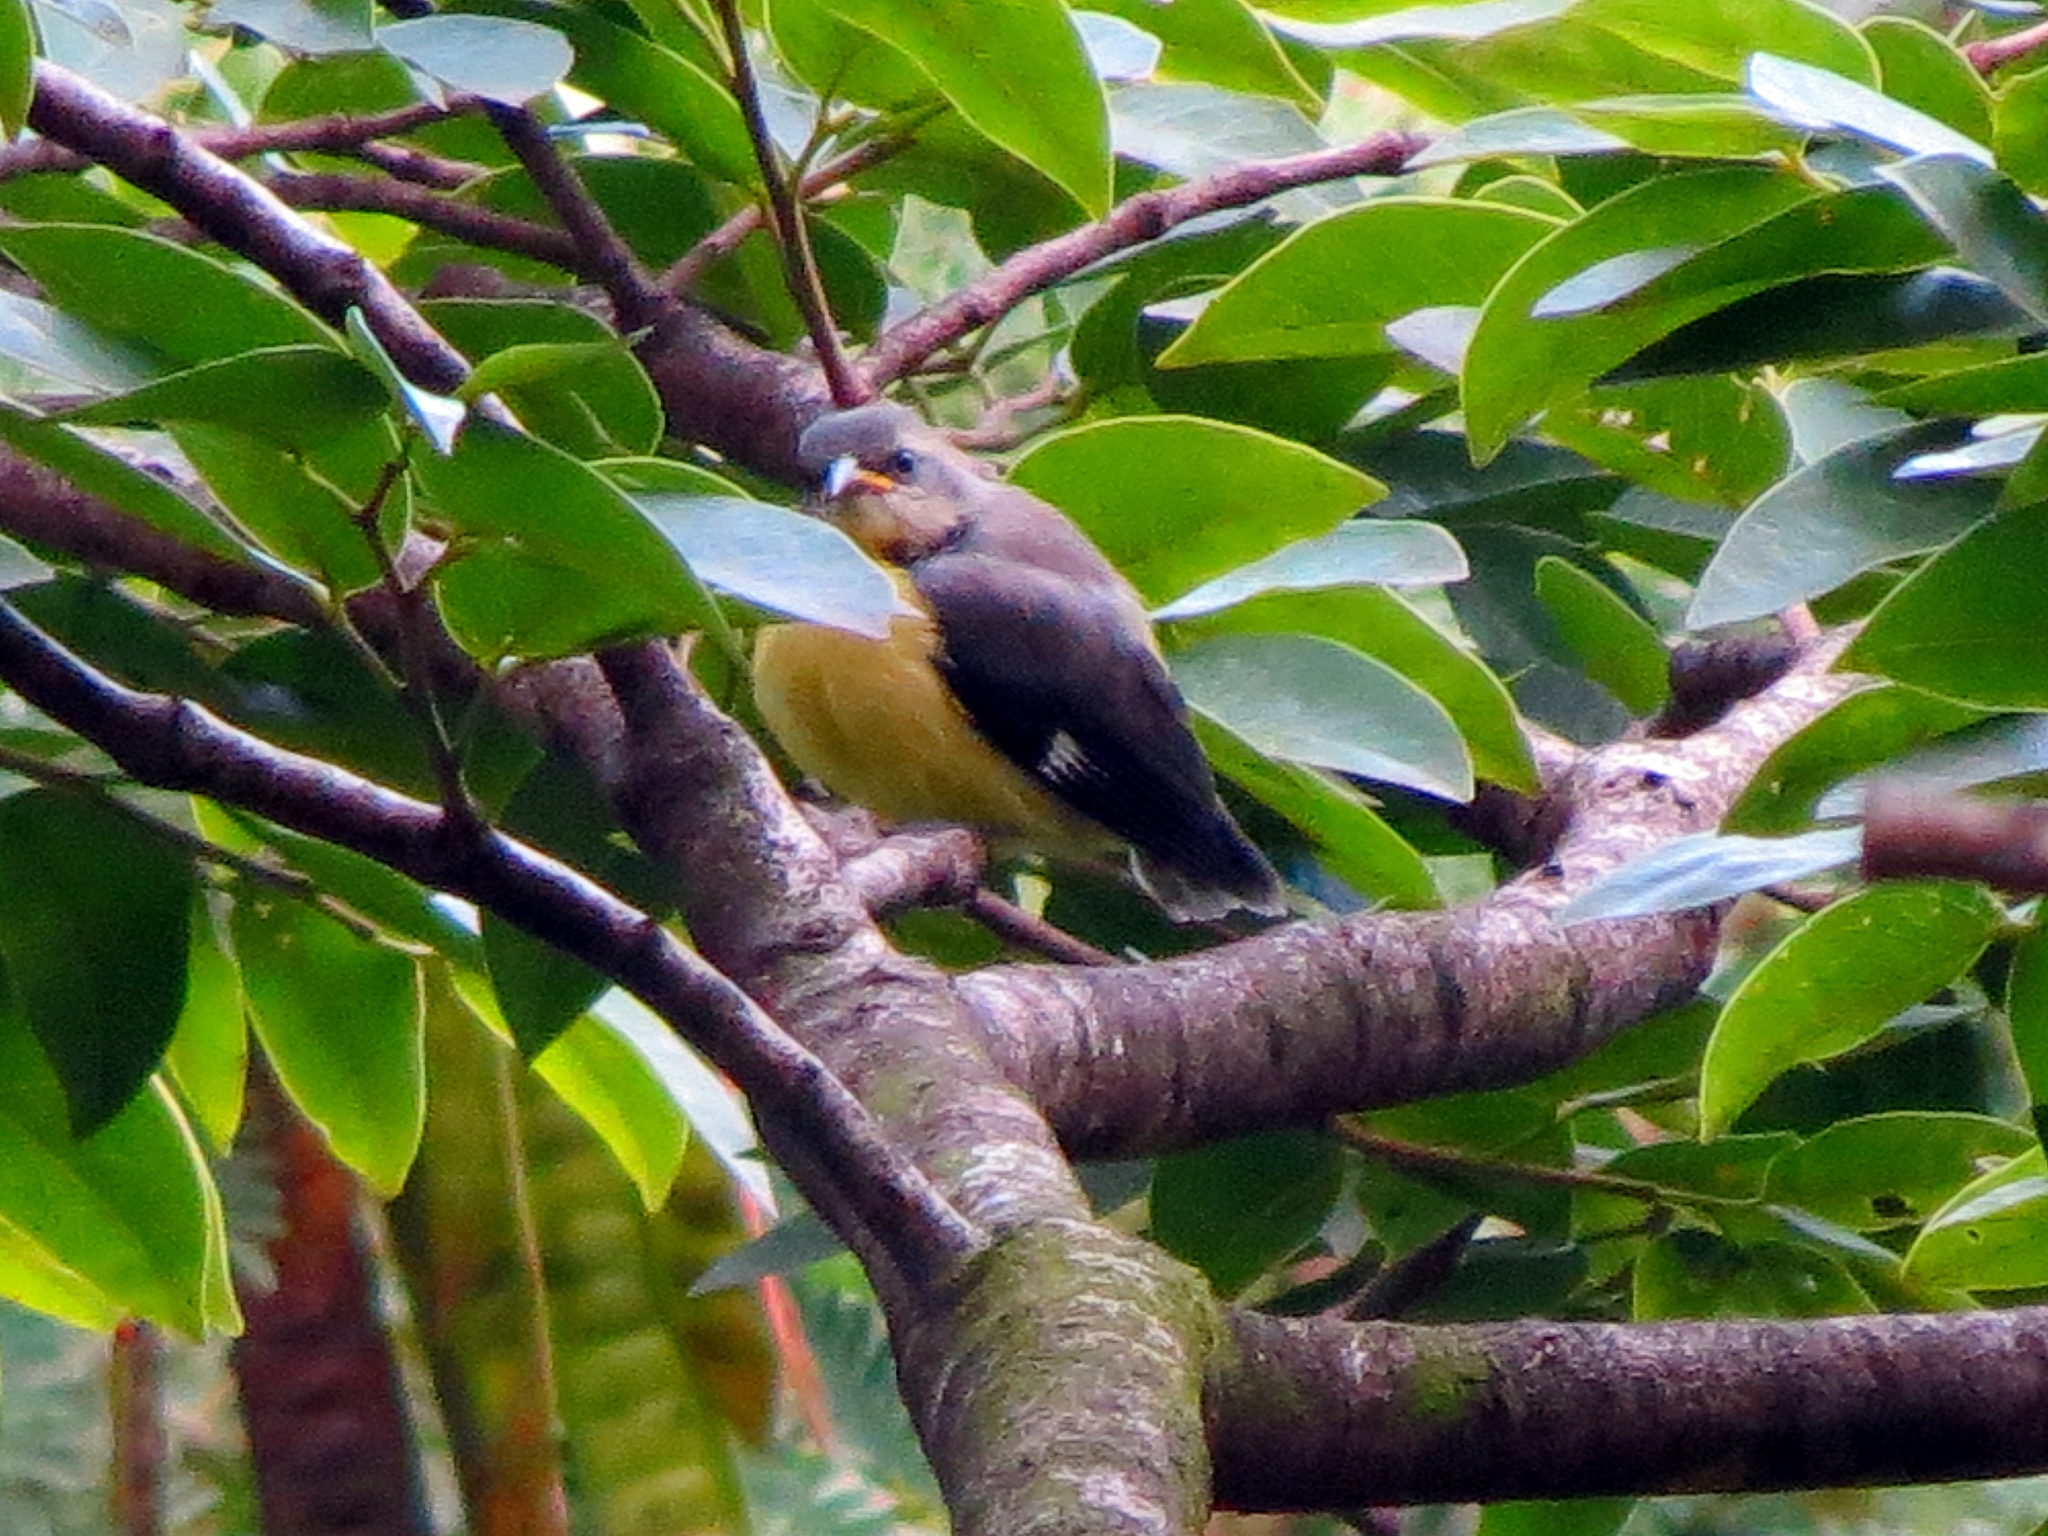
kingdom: Animalia
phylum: Chordata
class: Aves
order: Passeriformes
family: Thraupidae
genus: Coereba
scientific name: Coereba flaveola
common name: Bananaquit
